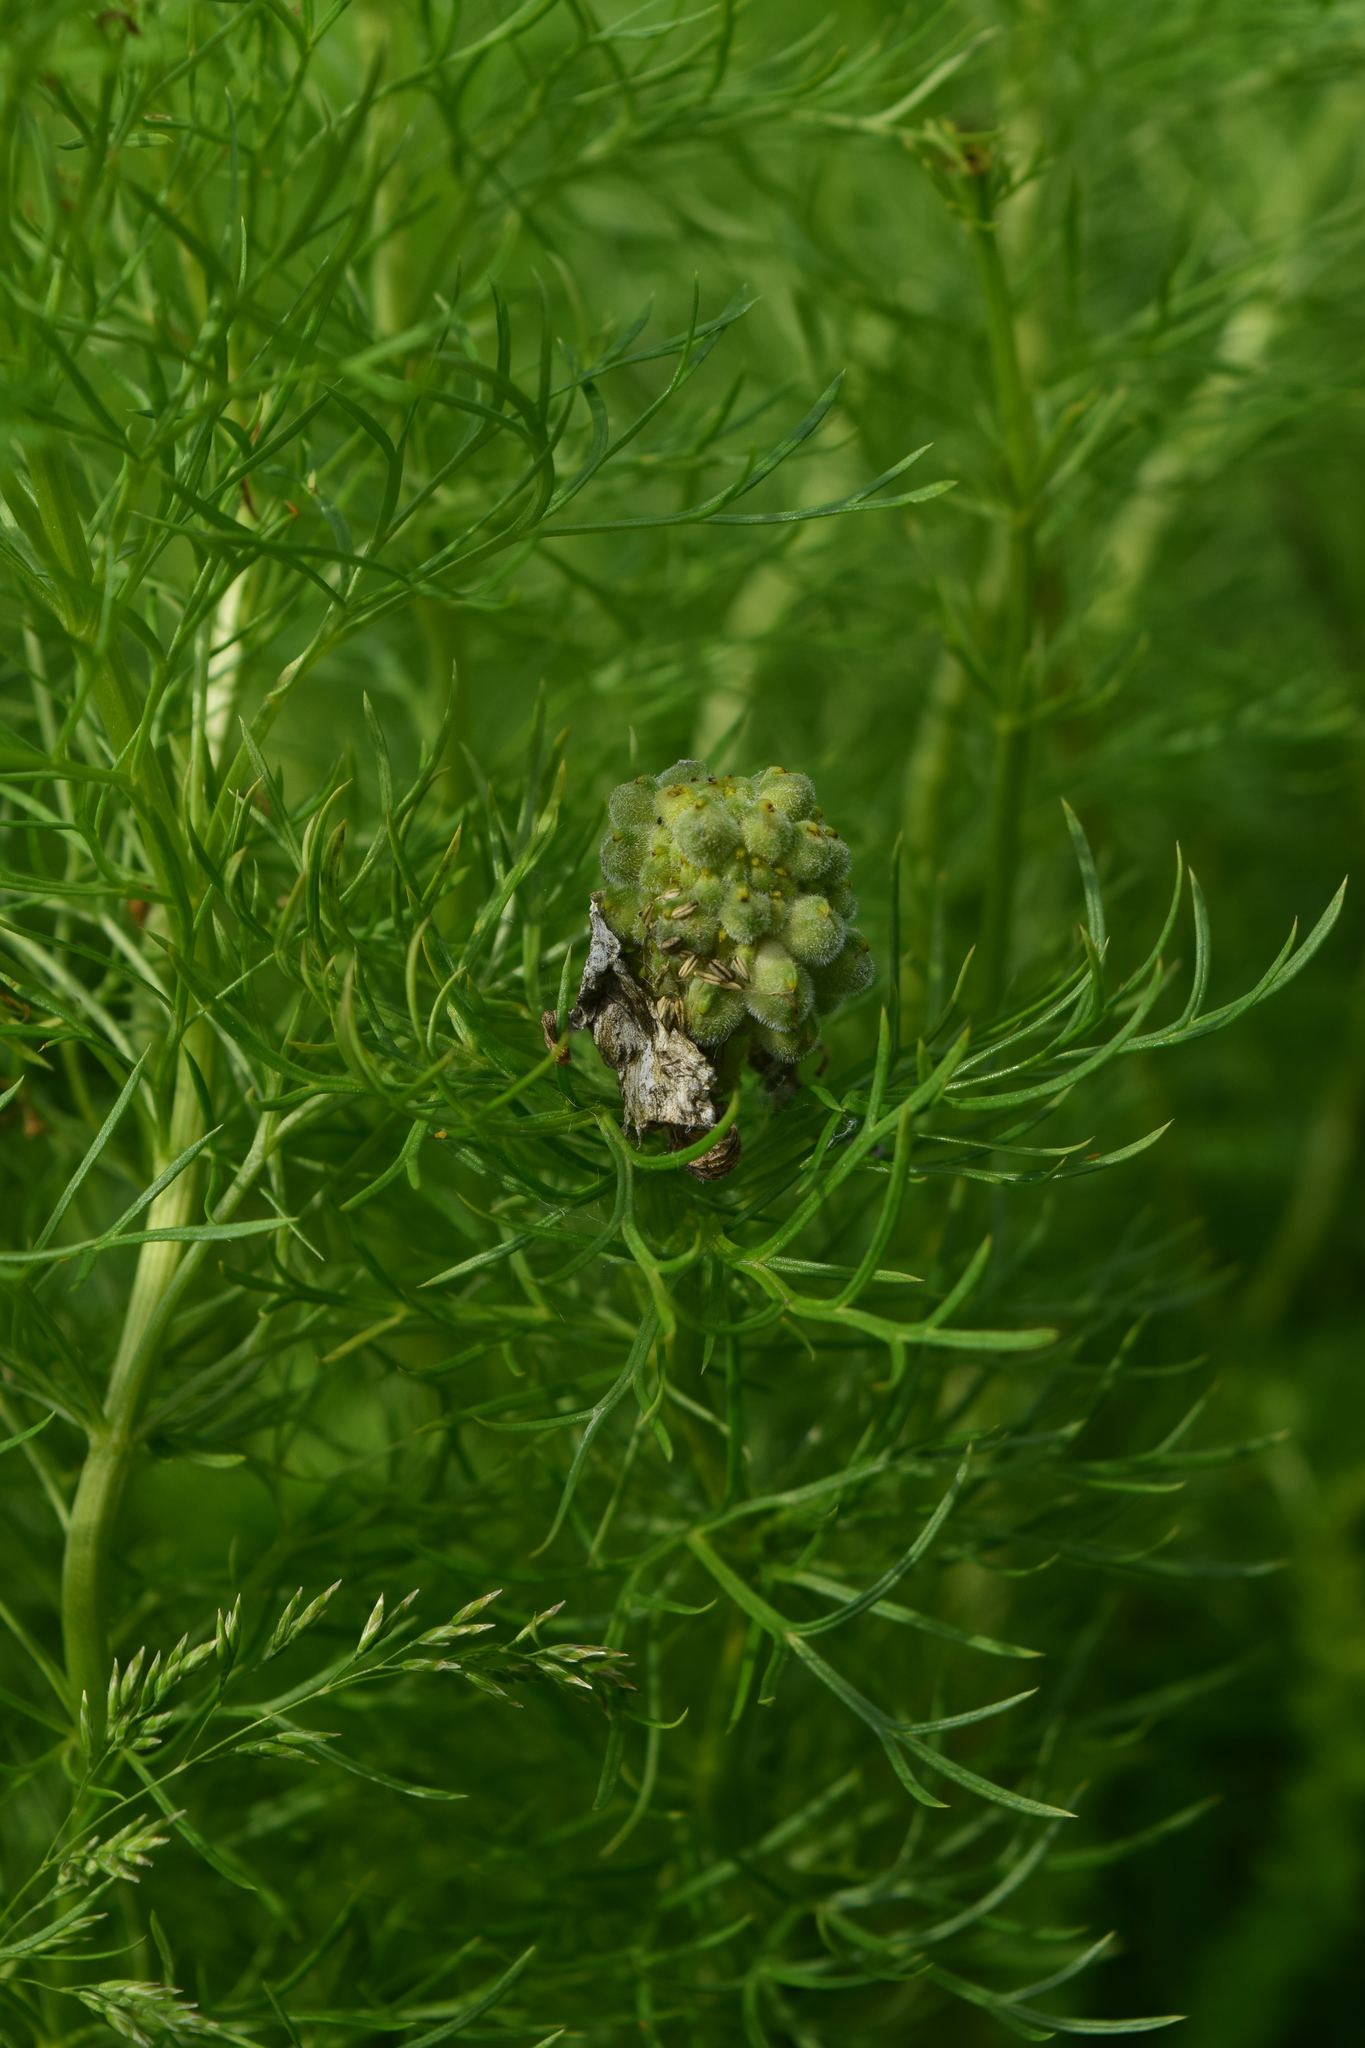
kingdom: Plantae
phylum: Tracheophyta
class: Magnoliopsida
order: Ranunculales
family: Ranunculaceae
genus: Adonis
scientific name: Adonis vernalis
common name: Yellow pheasants-eye
